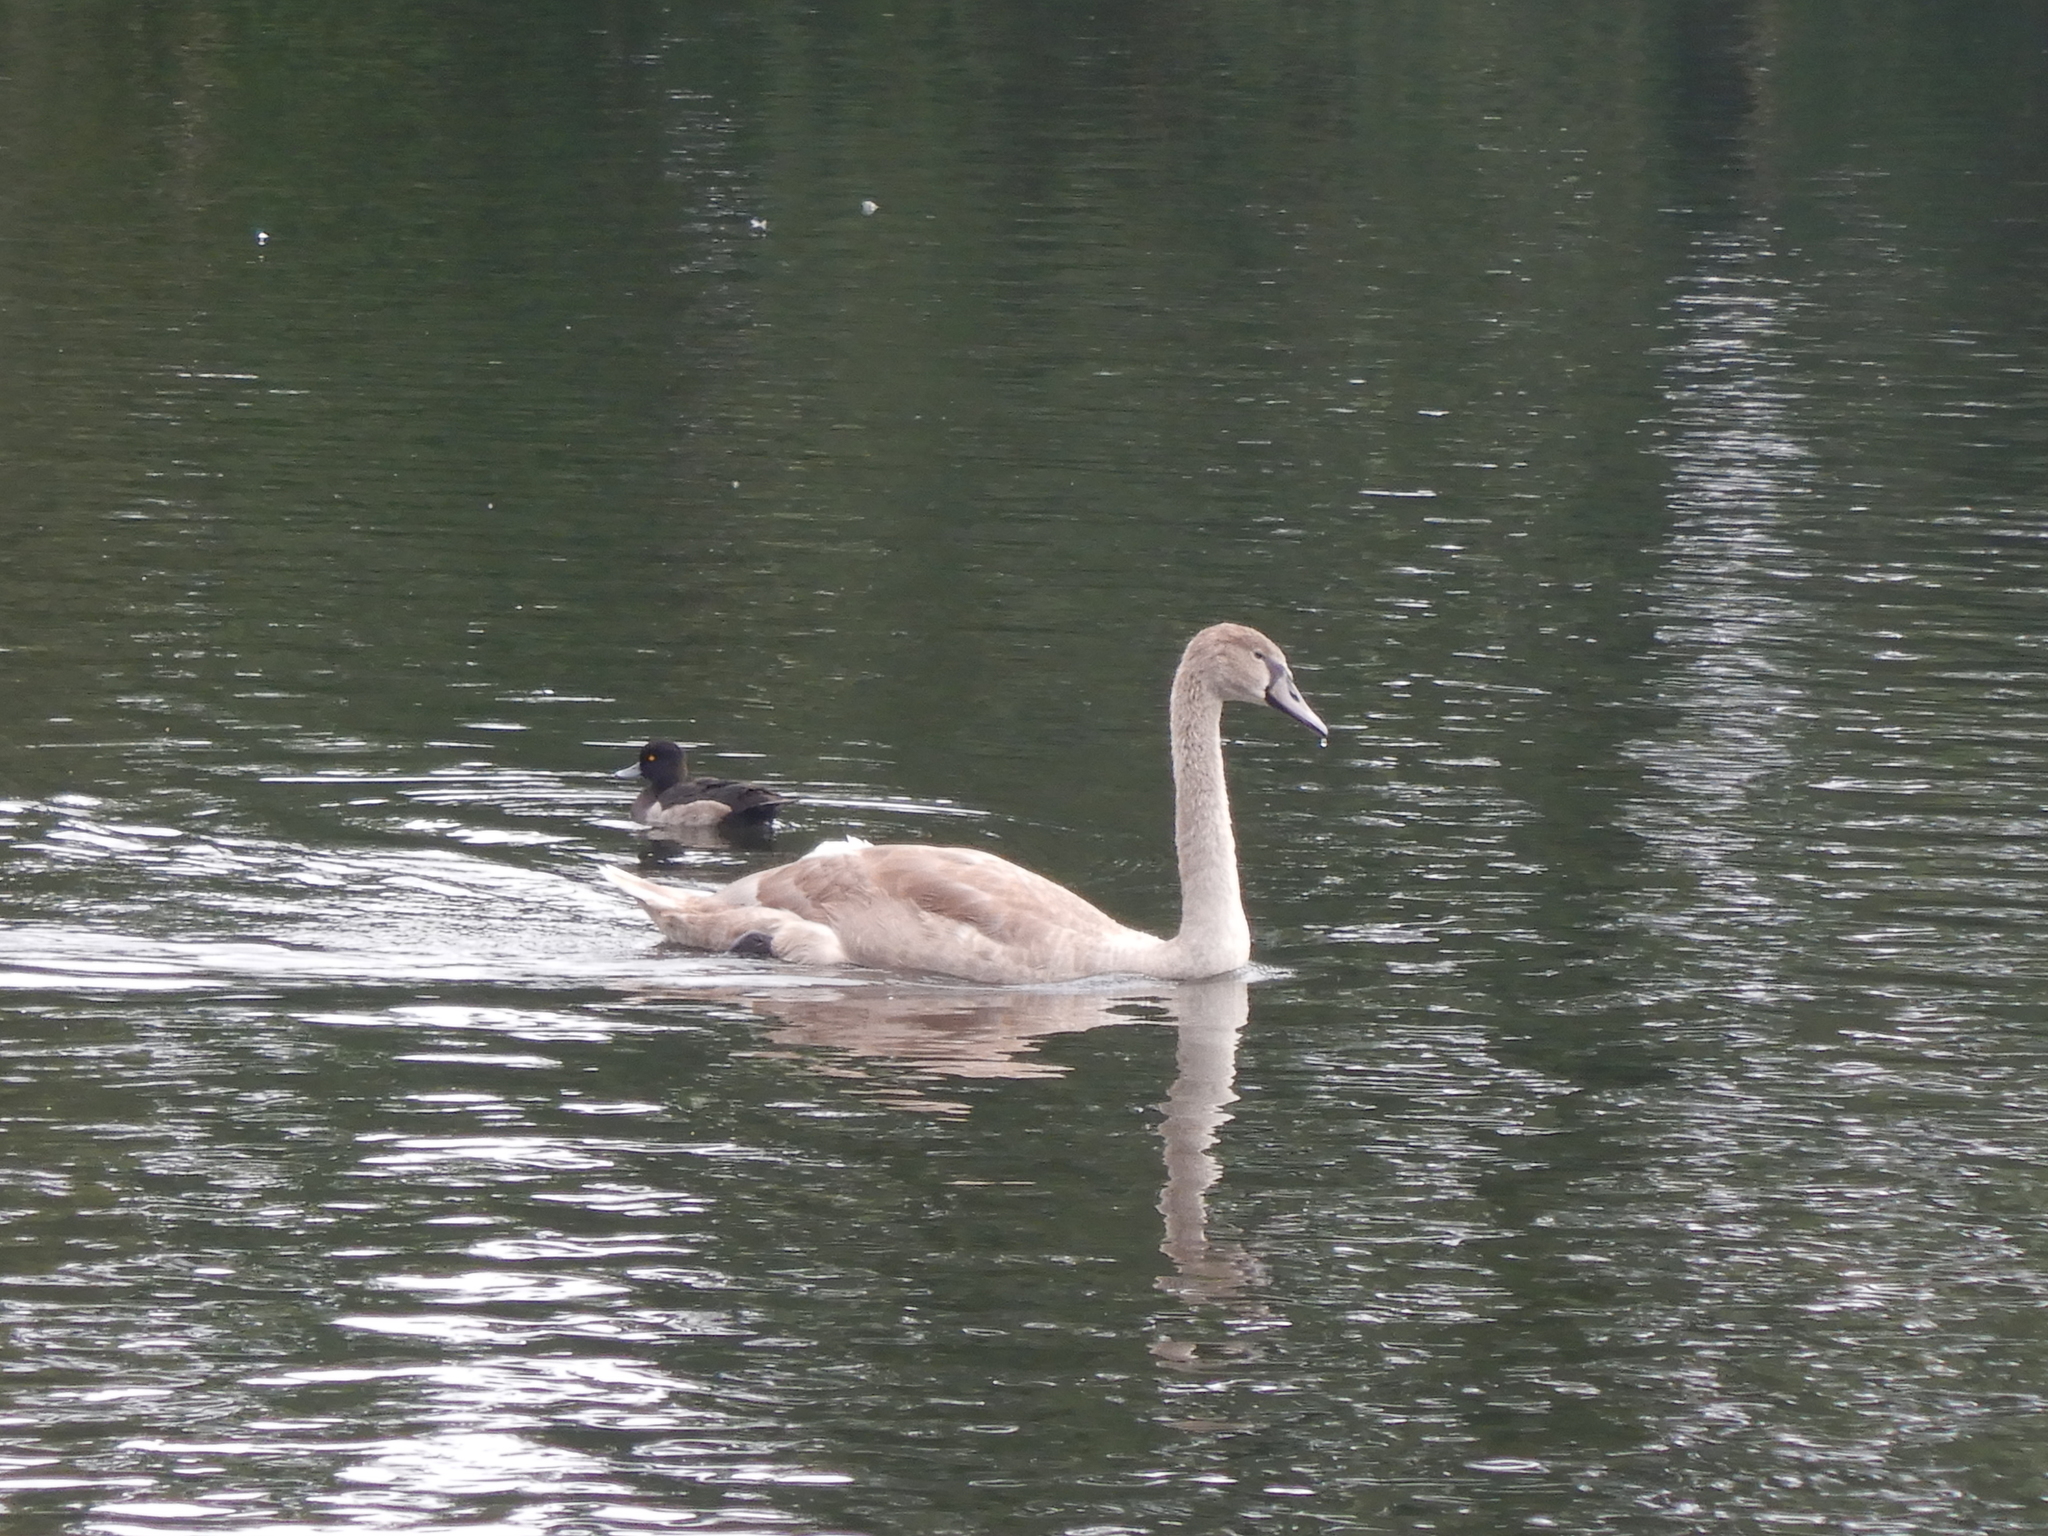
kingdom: Animalia
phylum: Chordata
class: Aves
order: Anseriformes
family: Anatidae
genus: Cygnus
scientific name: Cygnus olor
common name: Mute swan
